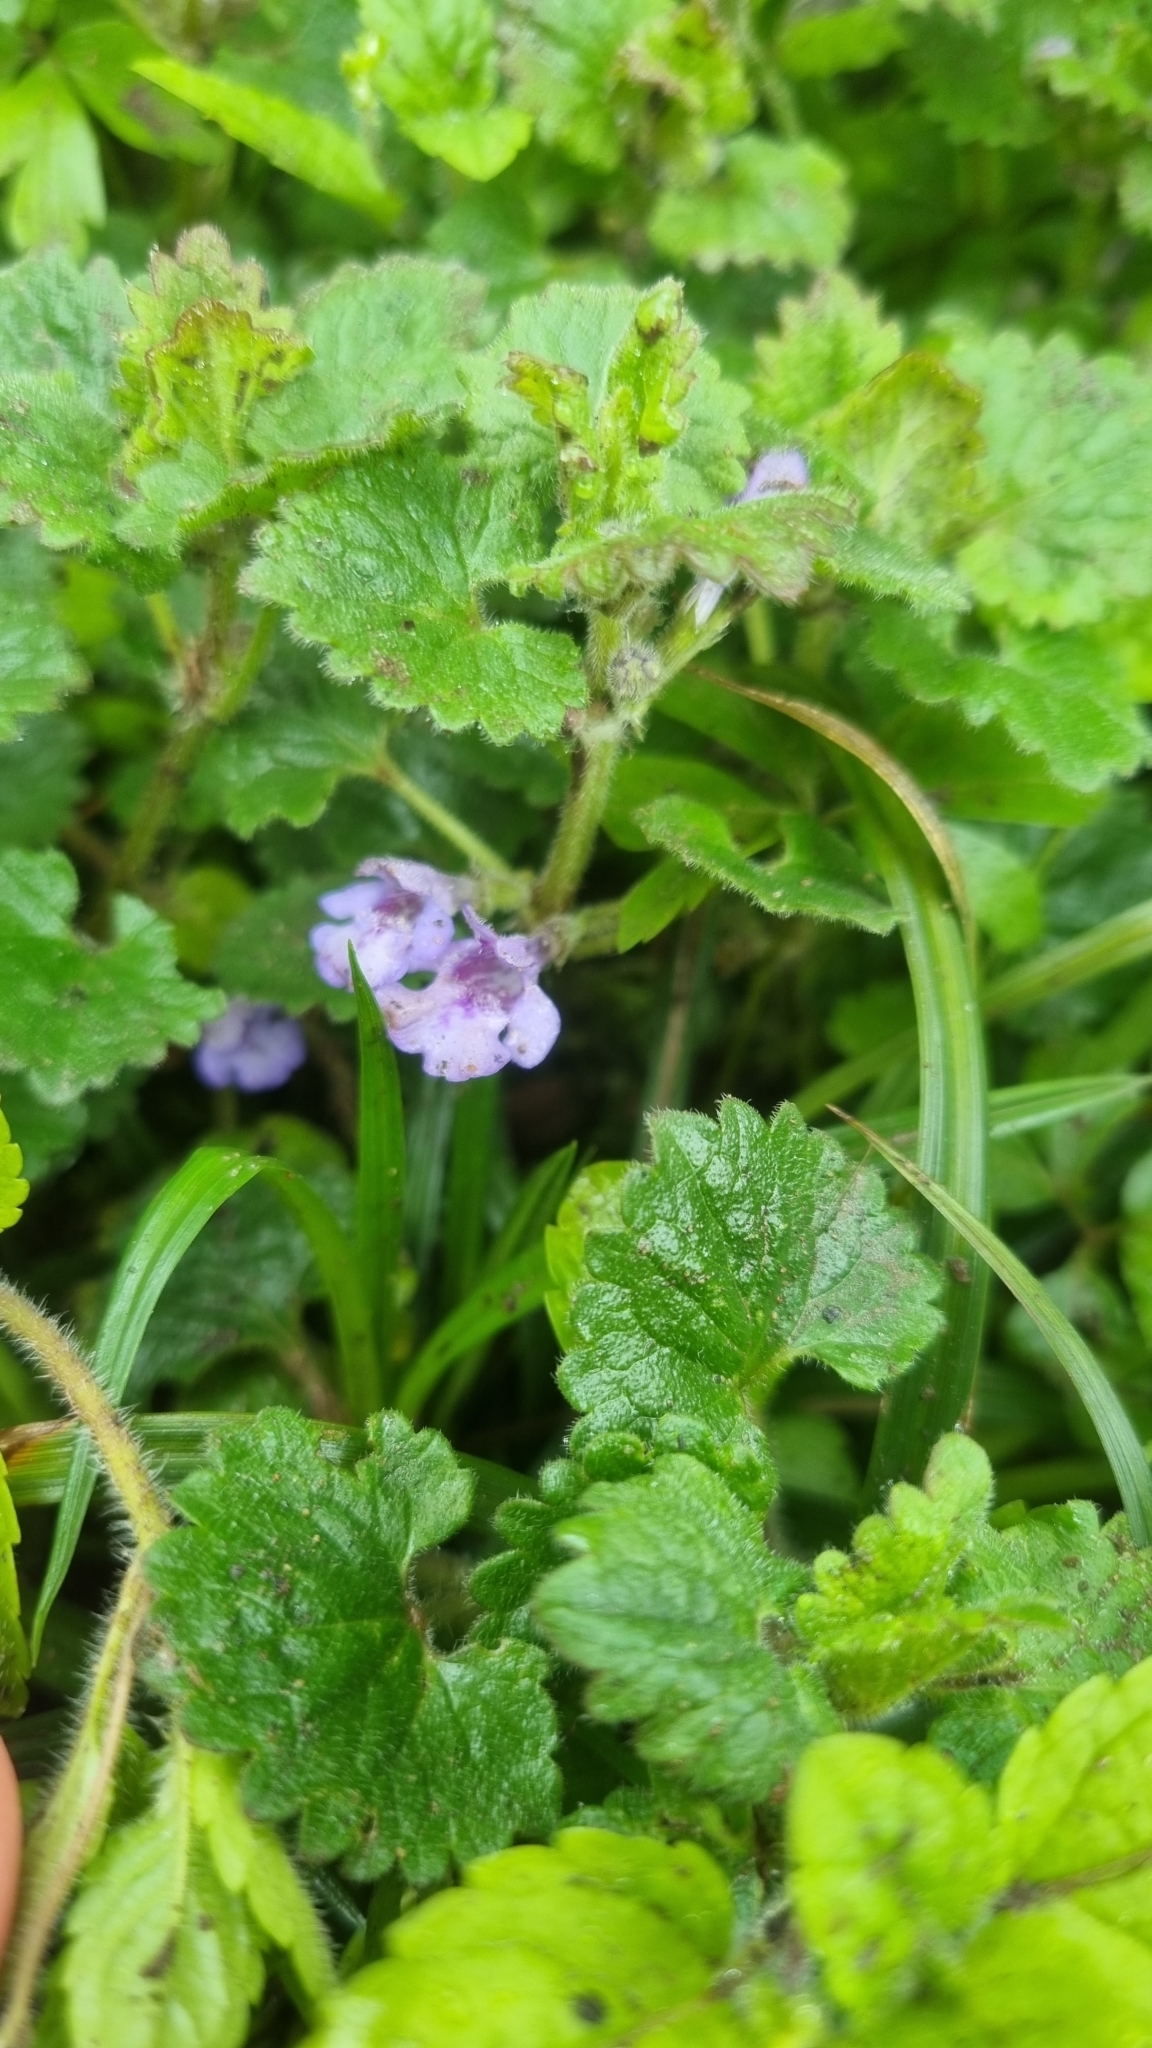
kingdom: Plantae
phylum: Tracheophyta
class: Magnoliopsida
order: Lamiales
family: Lamiaceae
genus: Glechoma
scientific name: Glechoma hederacea
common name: Ground ivy
